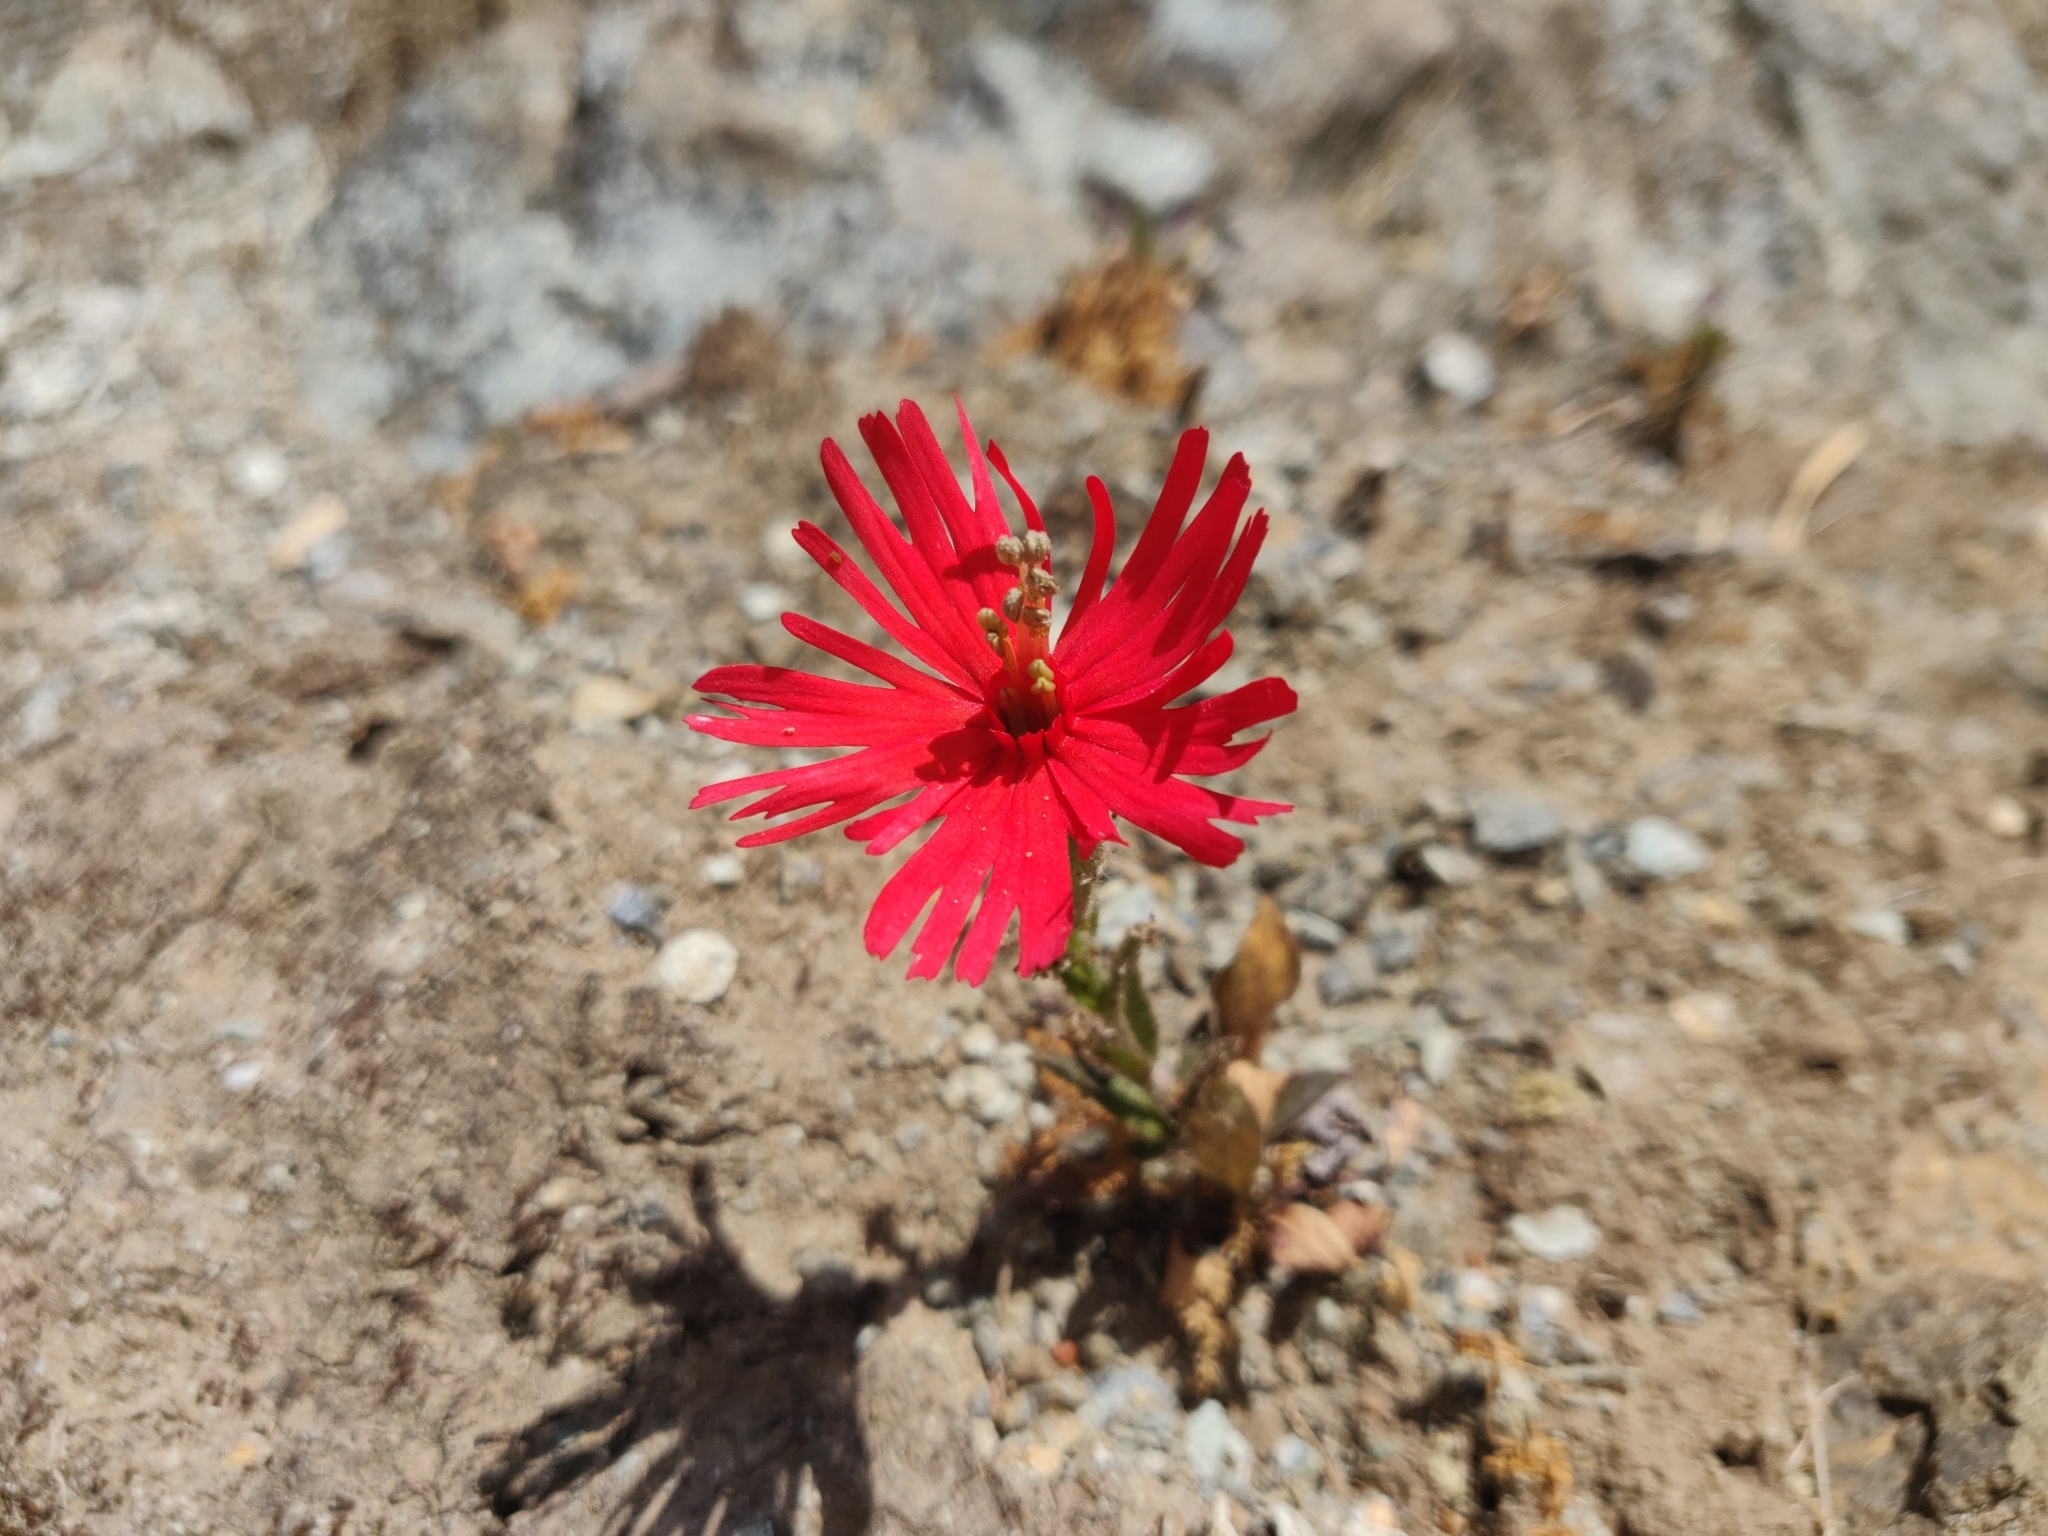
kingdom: Plantae
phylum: Tracheophyta
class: Magnoliopsida
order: Caryophyllales
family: Caryophyllaceae
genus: Silene
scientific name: Silene laciniata
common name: Indian-pink
